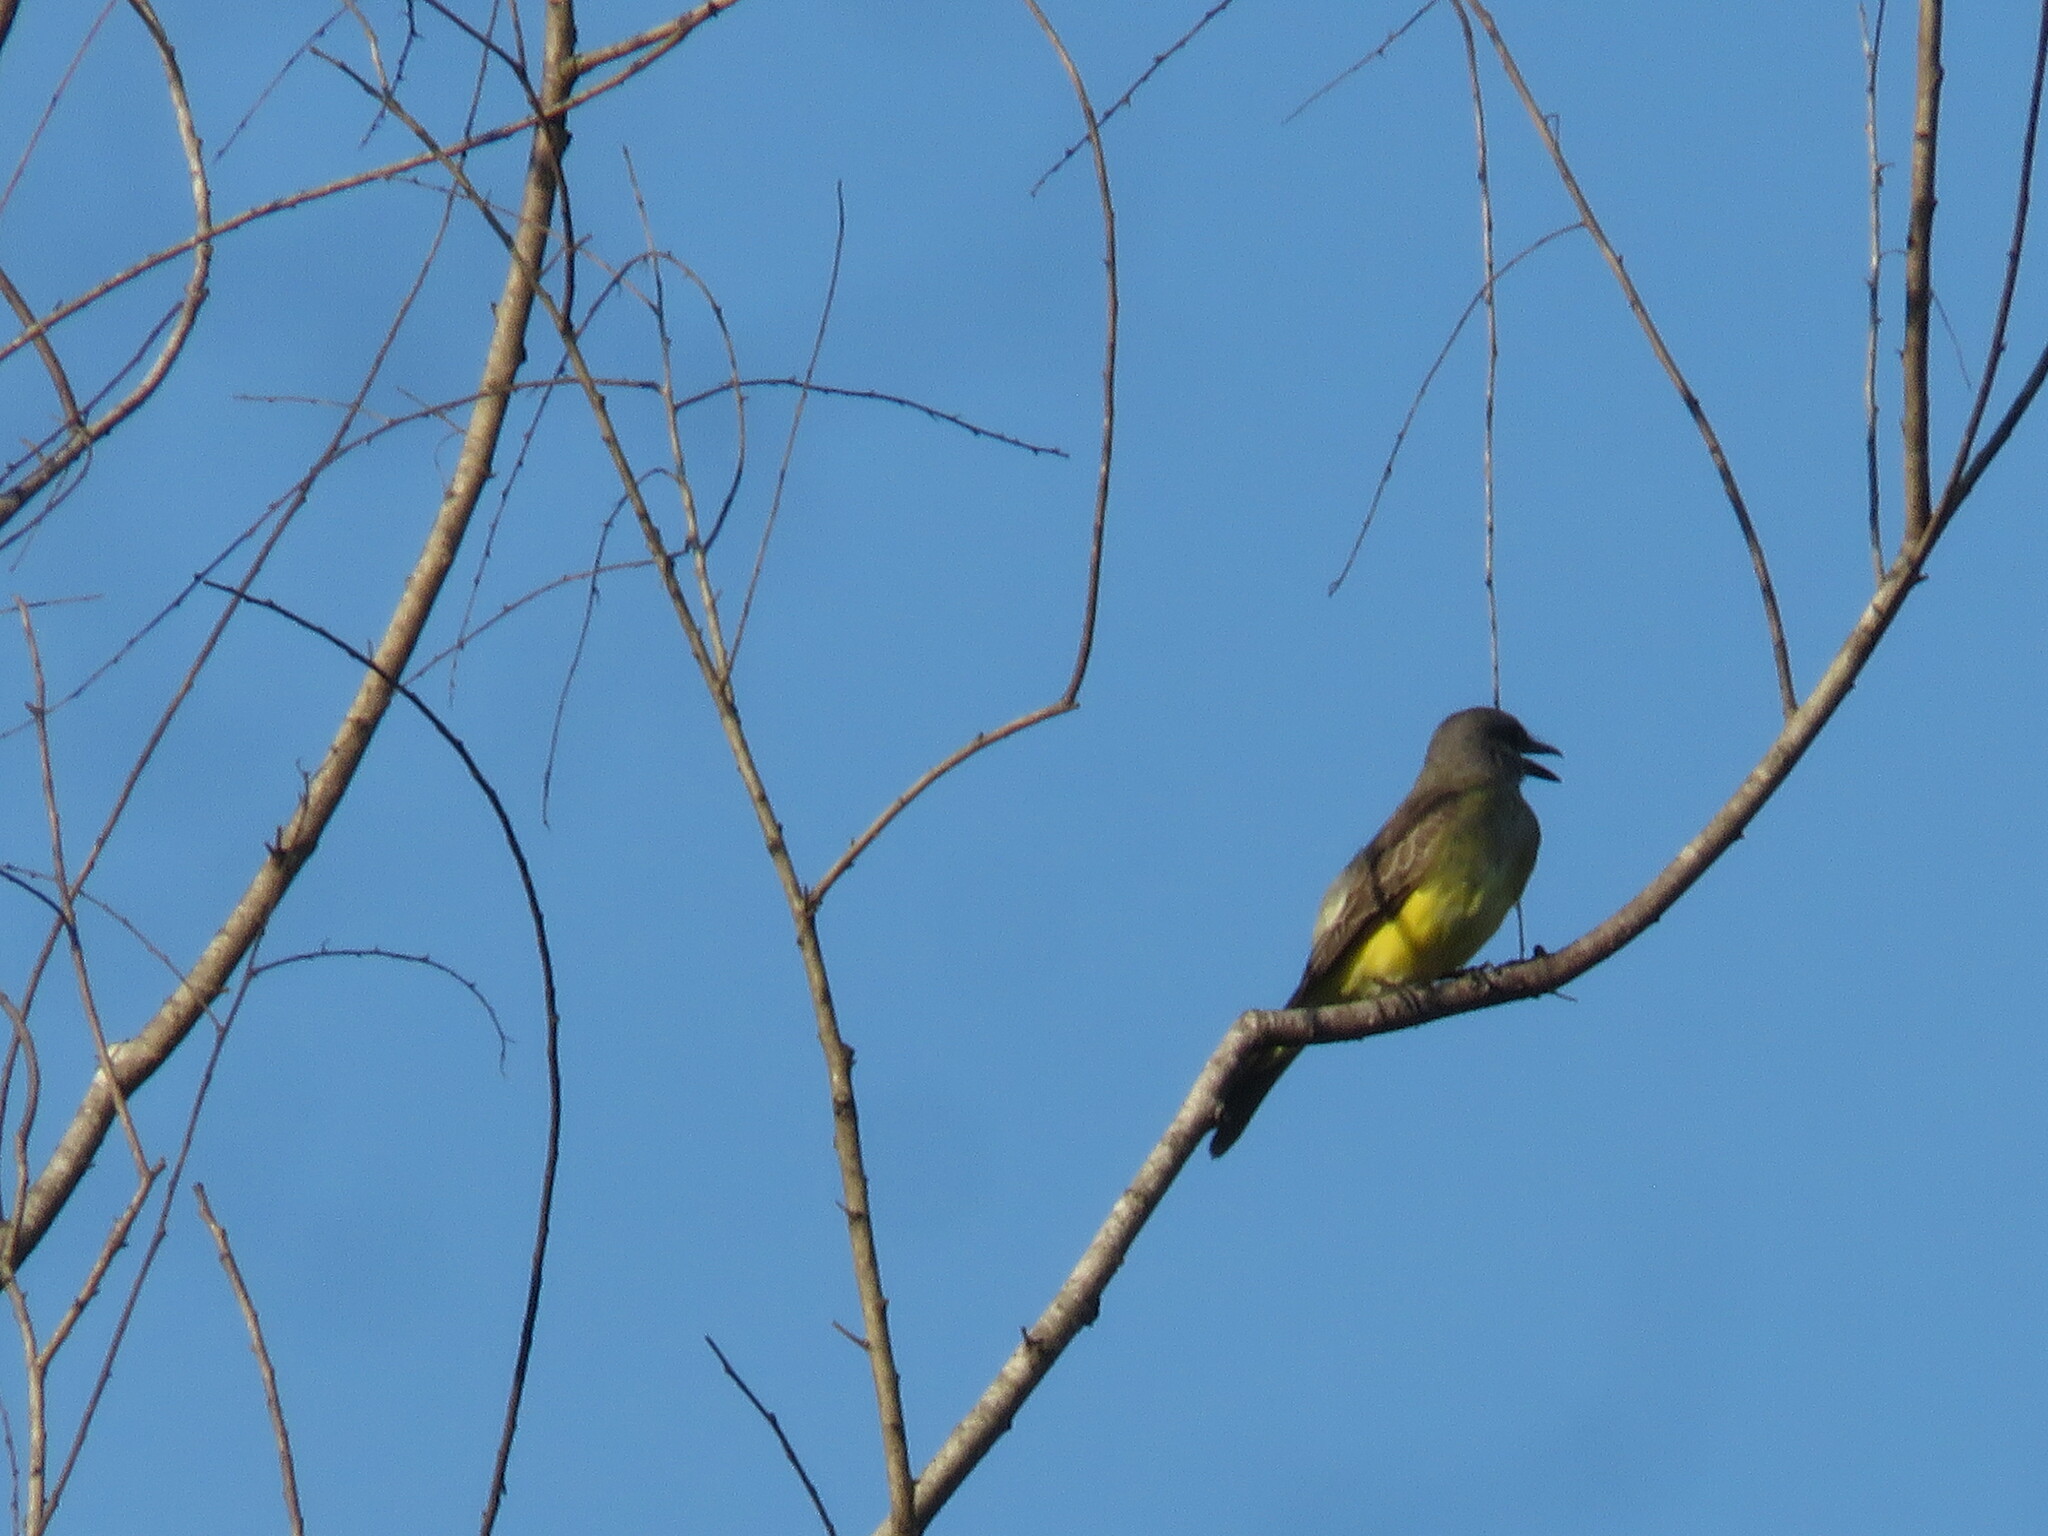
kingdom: Animalia
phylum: Chordata
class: Aves
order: Passeriformes
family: Tyrannidae
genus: Tyrannus
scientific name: Tyrannus melancholicus
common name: Tropical kingbird
